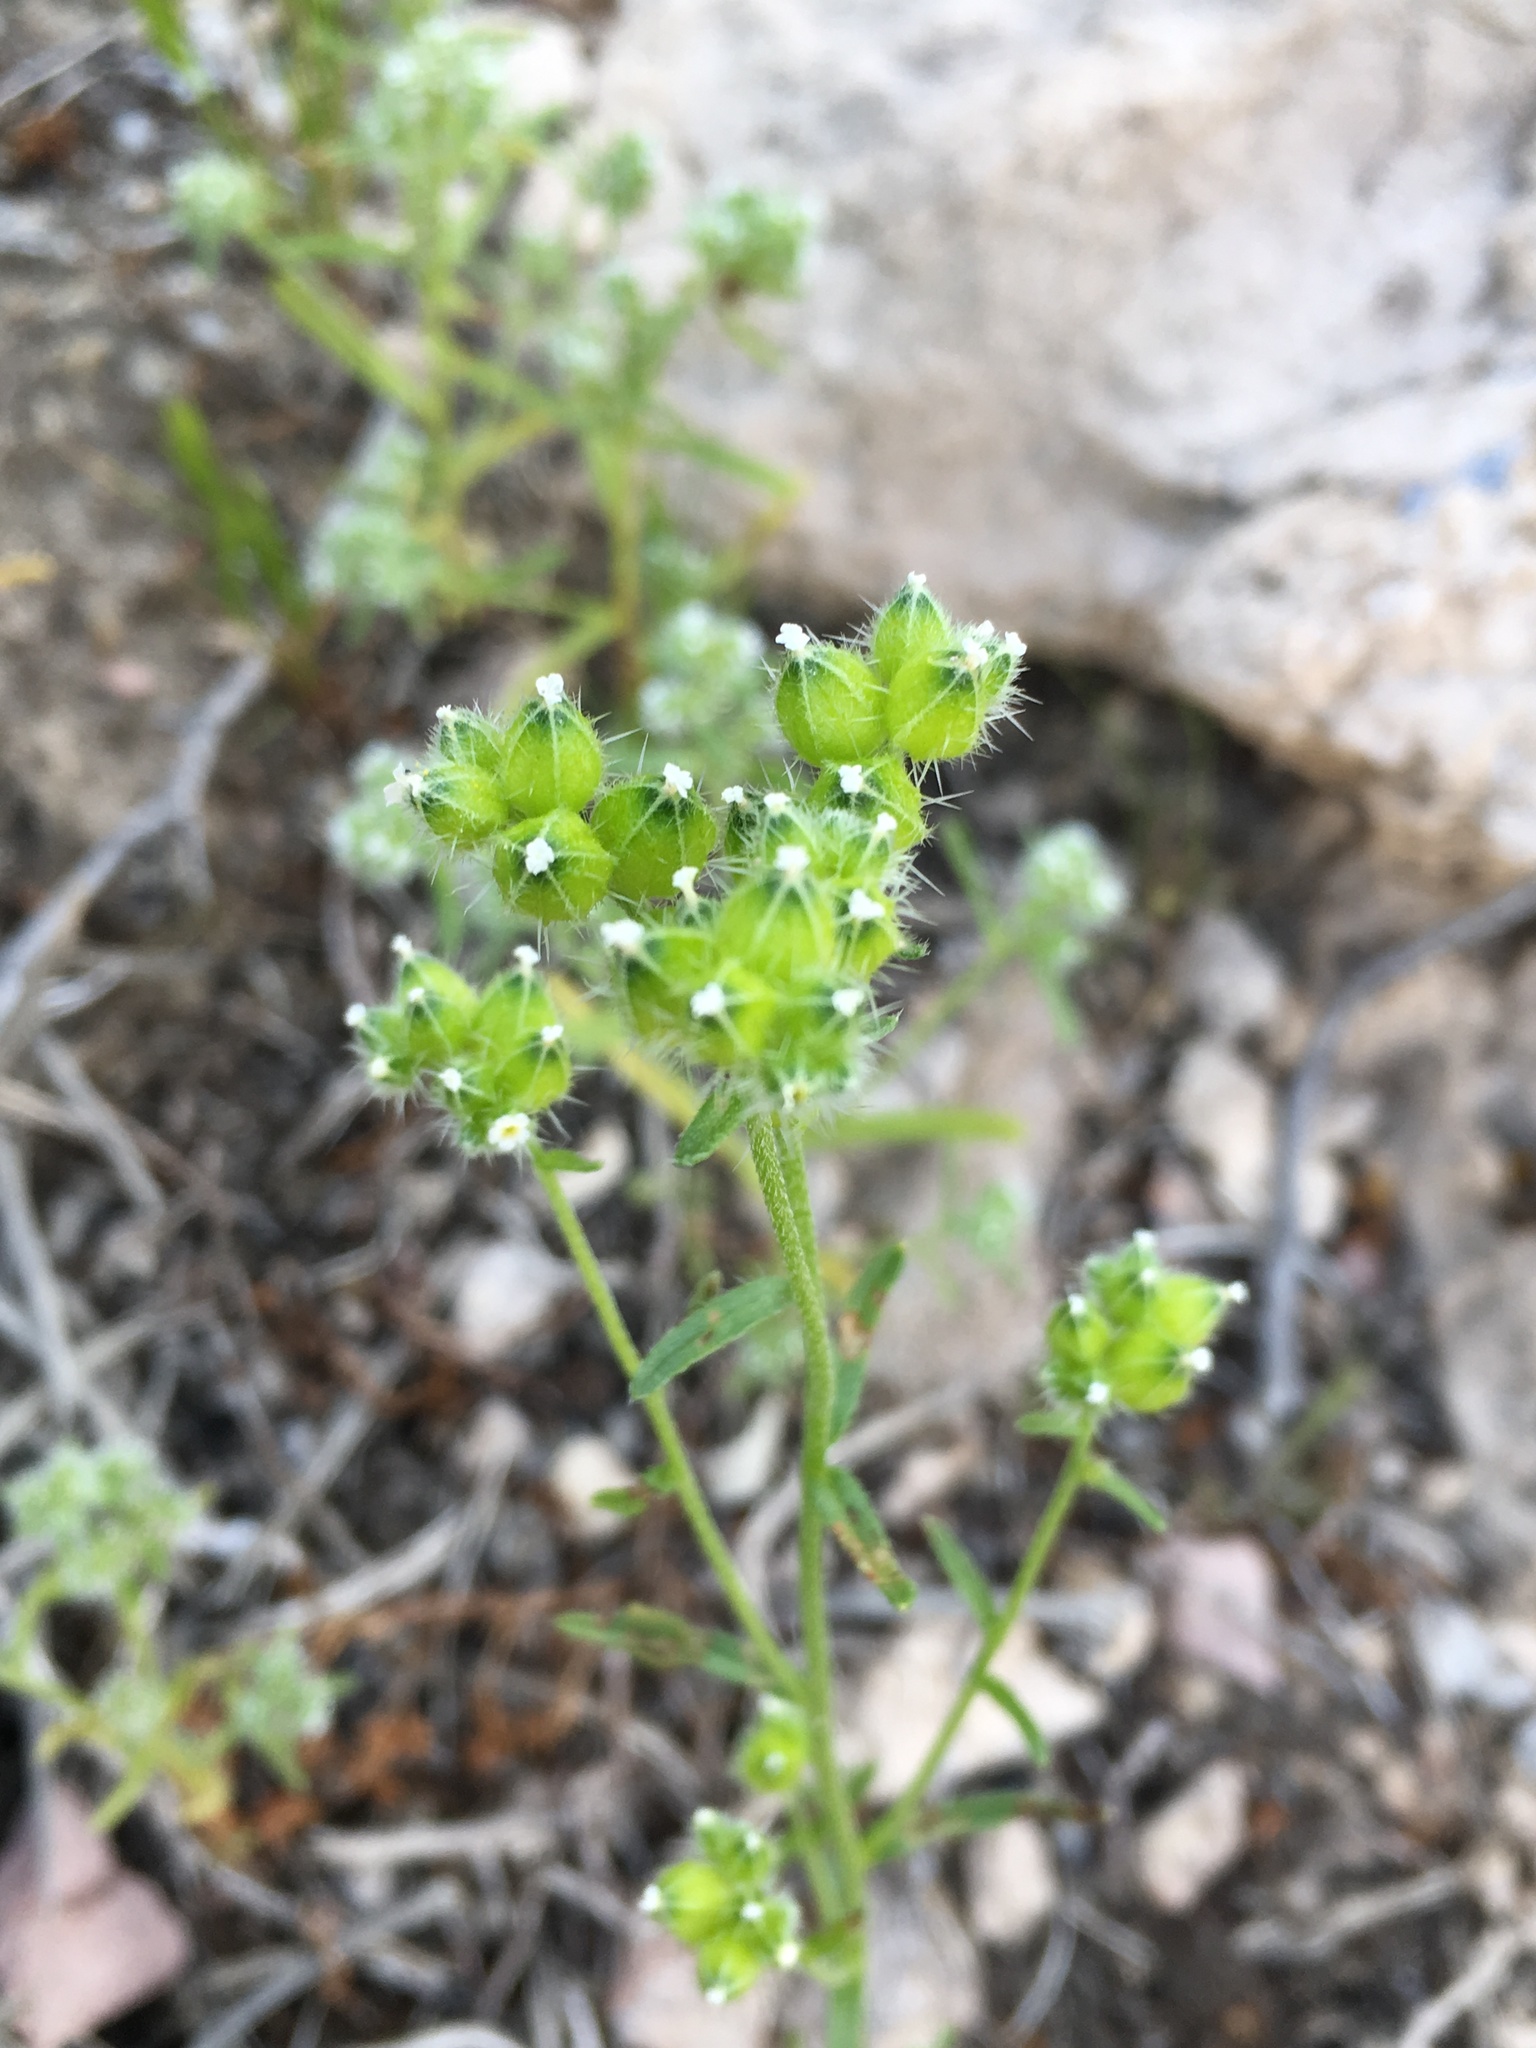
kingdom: Plantae
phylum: Tracheophyta
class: Magnoliopsida
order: Boraginales
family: Boraginaceae
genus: Cryptantha
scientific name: Cryptantha pterocarya
